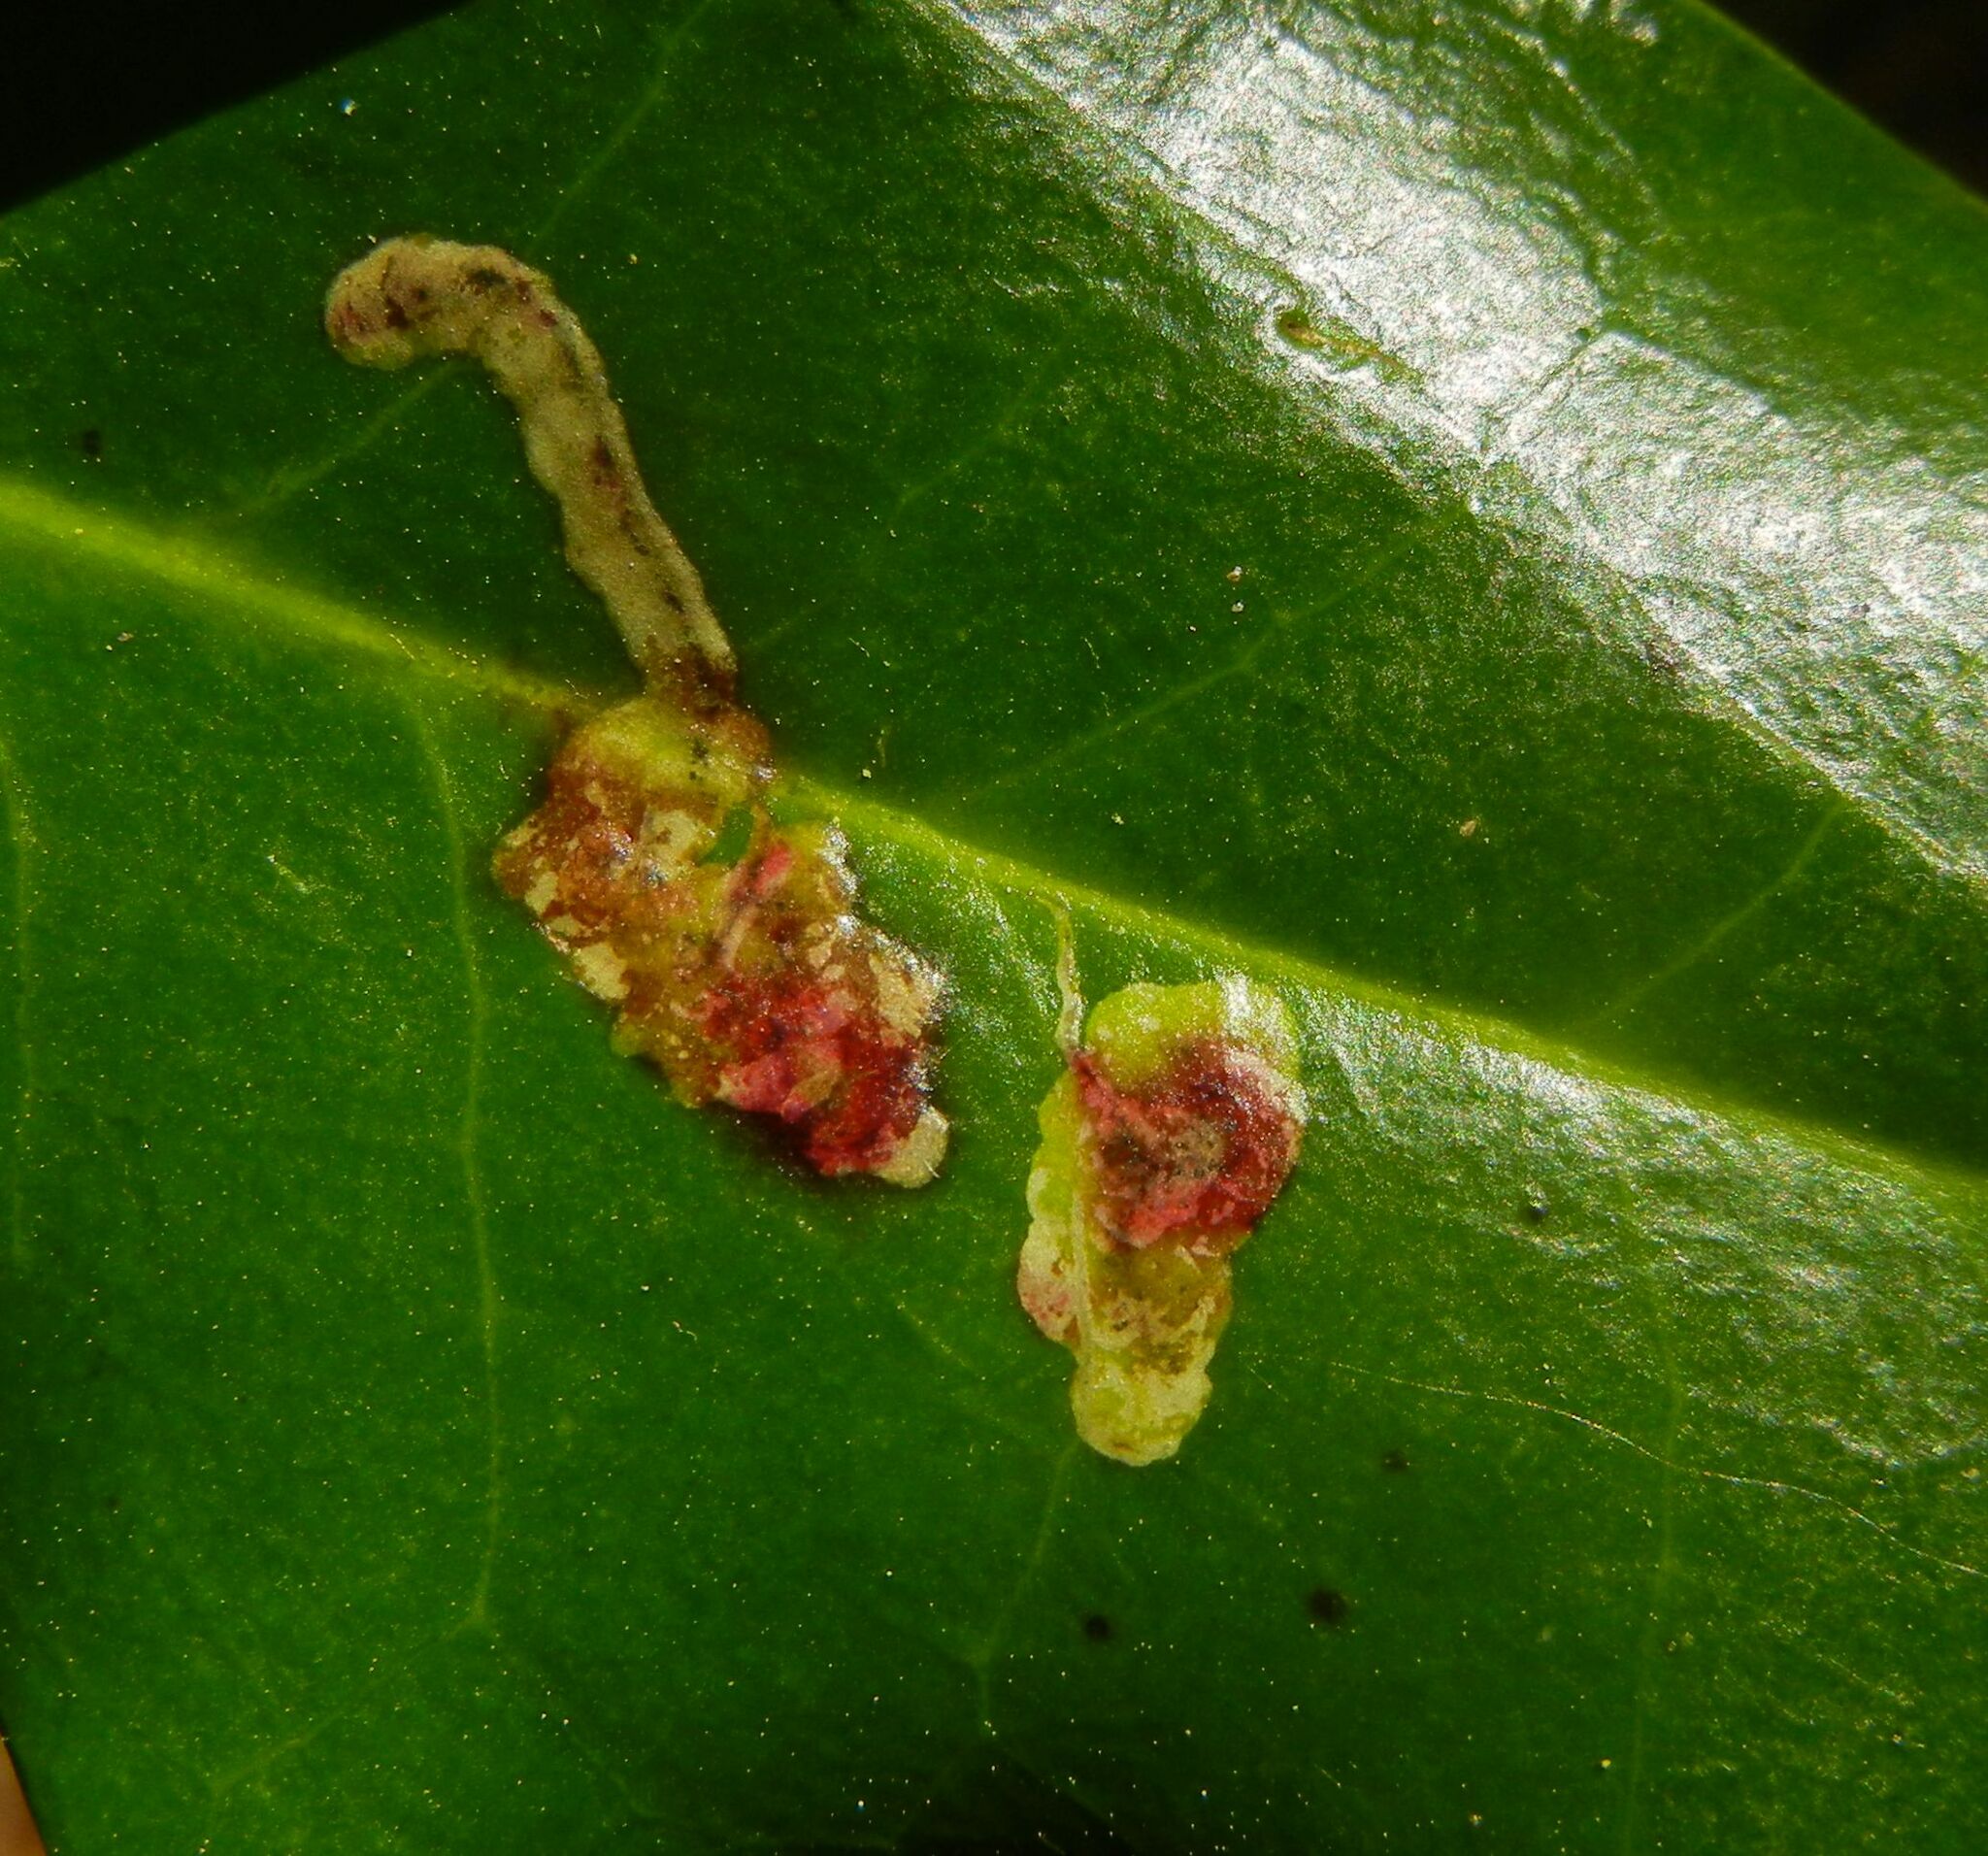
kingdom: Animalia
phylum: Arthropoda
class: Insecta
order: Diptera
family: Agromyzidae
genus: Phytomyza
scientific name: Phytomyza ilicis
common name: Holly leafminer
